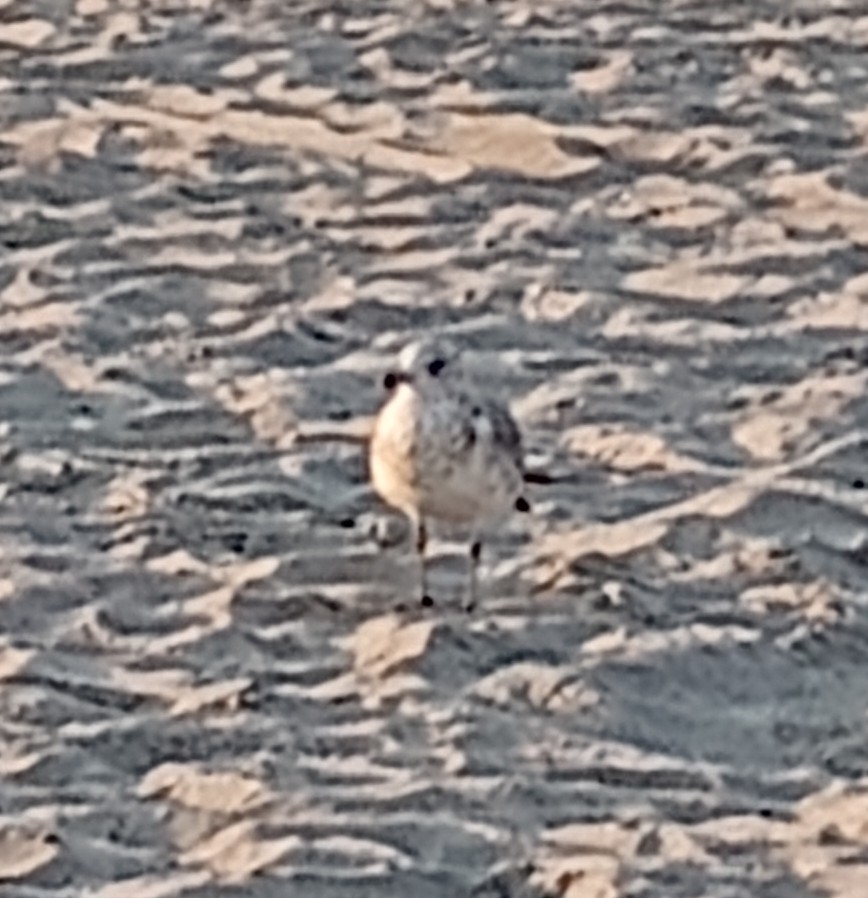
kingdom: Animalia
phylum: Chordata
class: Aves
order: Charadriiformes
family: Laridae
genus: Larus
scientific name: Larus delawarensis
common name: Ring-billed gull
